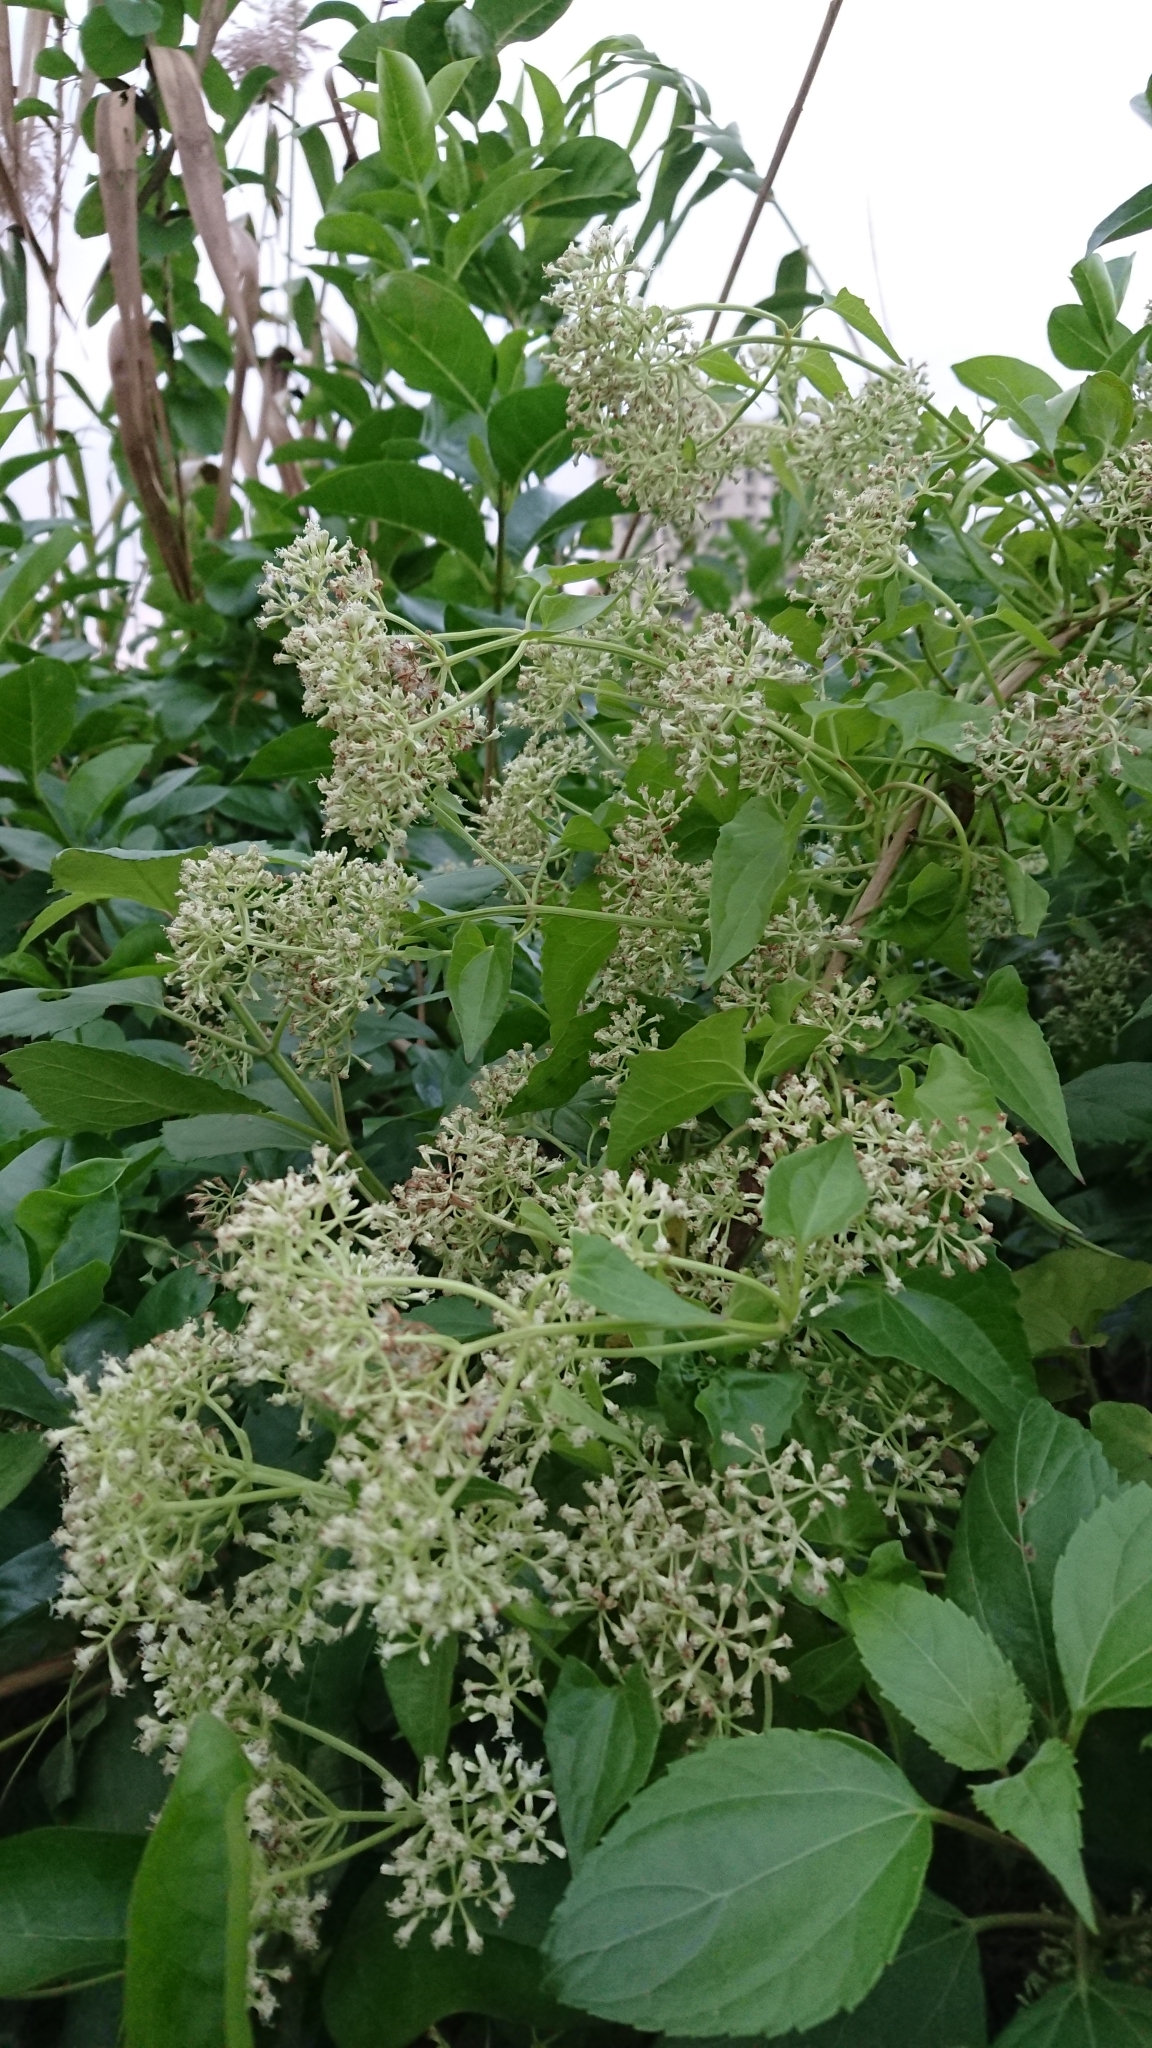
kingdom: Plantae
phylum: Tracheophyta
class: Magnoliopsida
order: Asterales
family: Asteraceae
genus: Mikania
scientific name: Mikania micrantha
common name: Mile-a-minute
